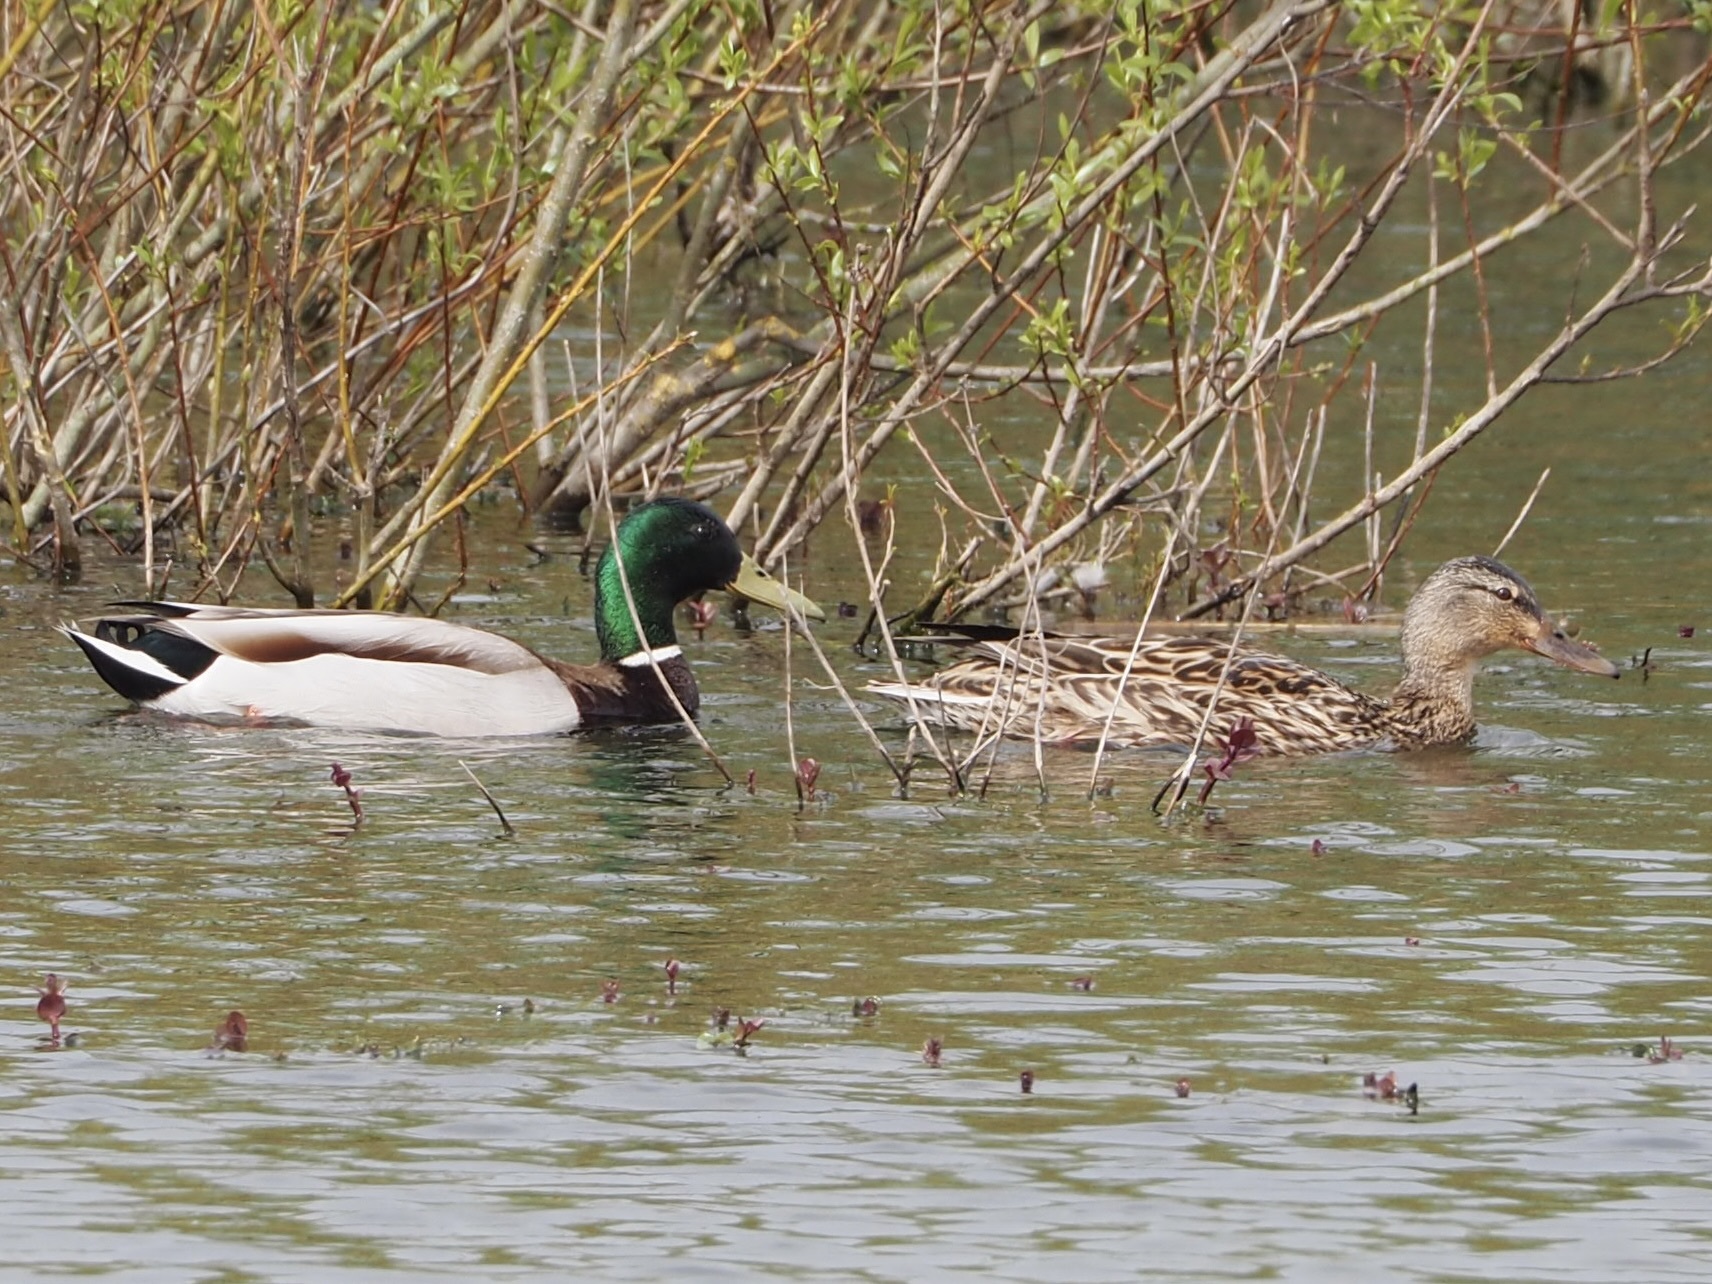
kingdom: Animalia
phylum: Chordata
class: Aves
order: Anseriformes
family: Anatidae
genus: Anas
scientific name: Anas platyrhynchos
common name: Mallard
